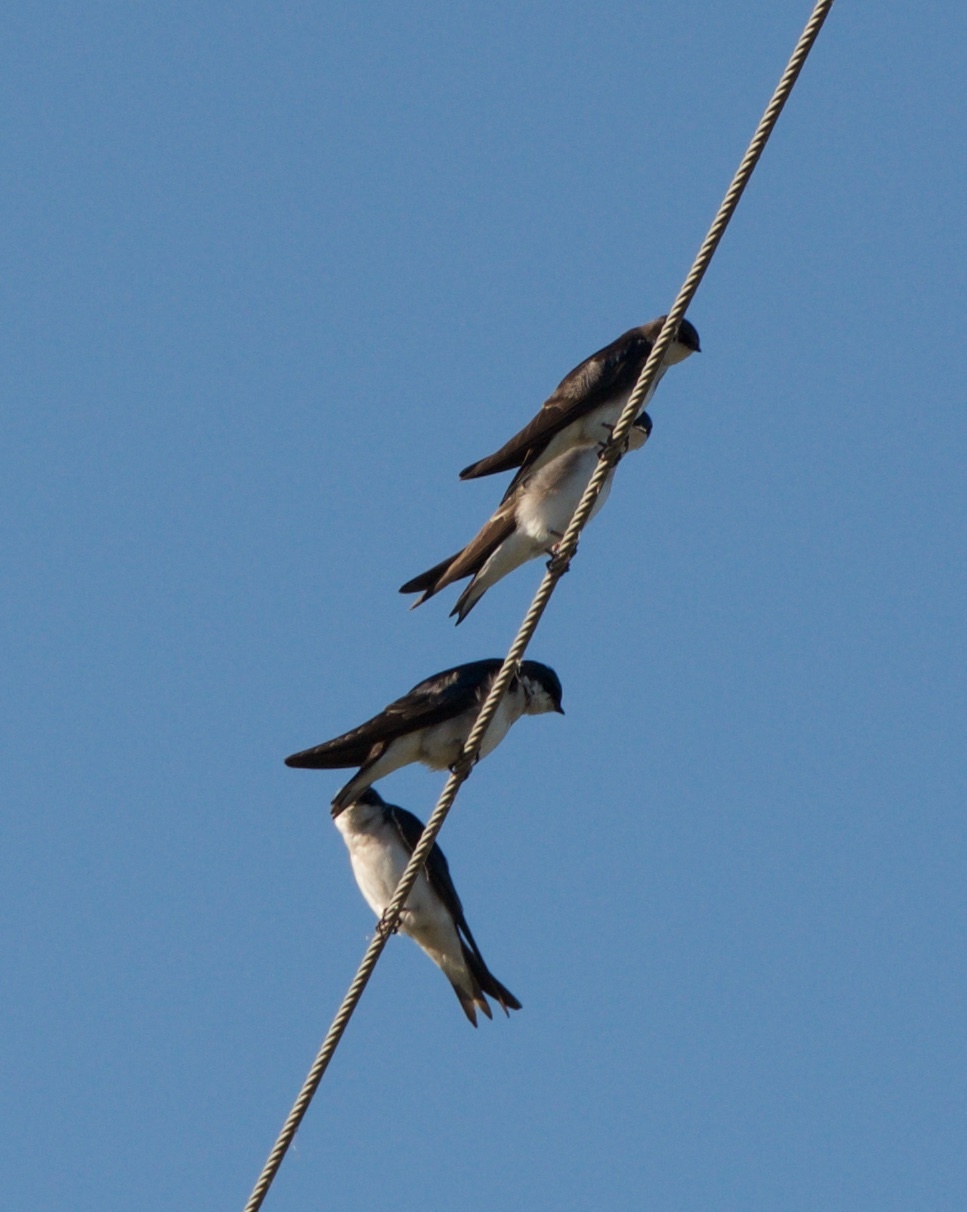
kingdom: Animalia
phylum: Chordata
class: Aves
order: Passeriformes
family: Hirundinidae
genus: Tachycineta
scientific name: Tachycineta bicolor
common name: Tree swallow
